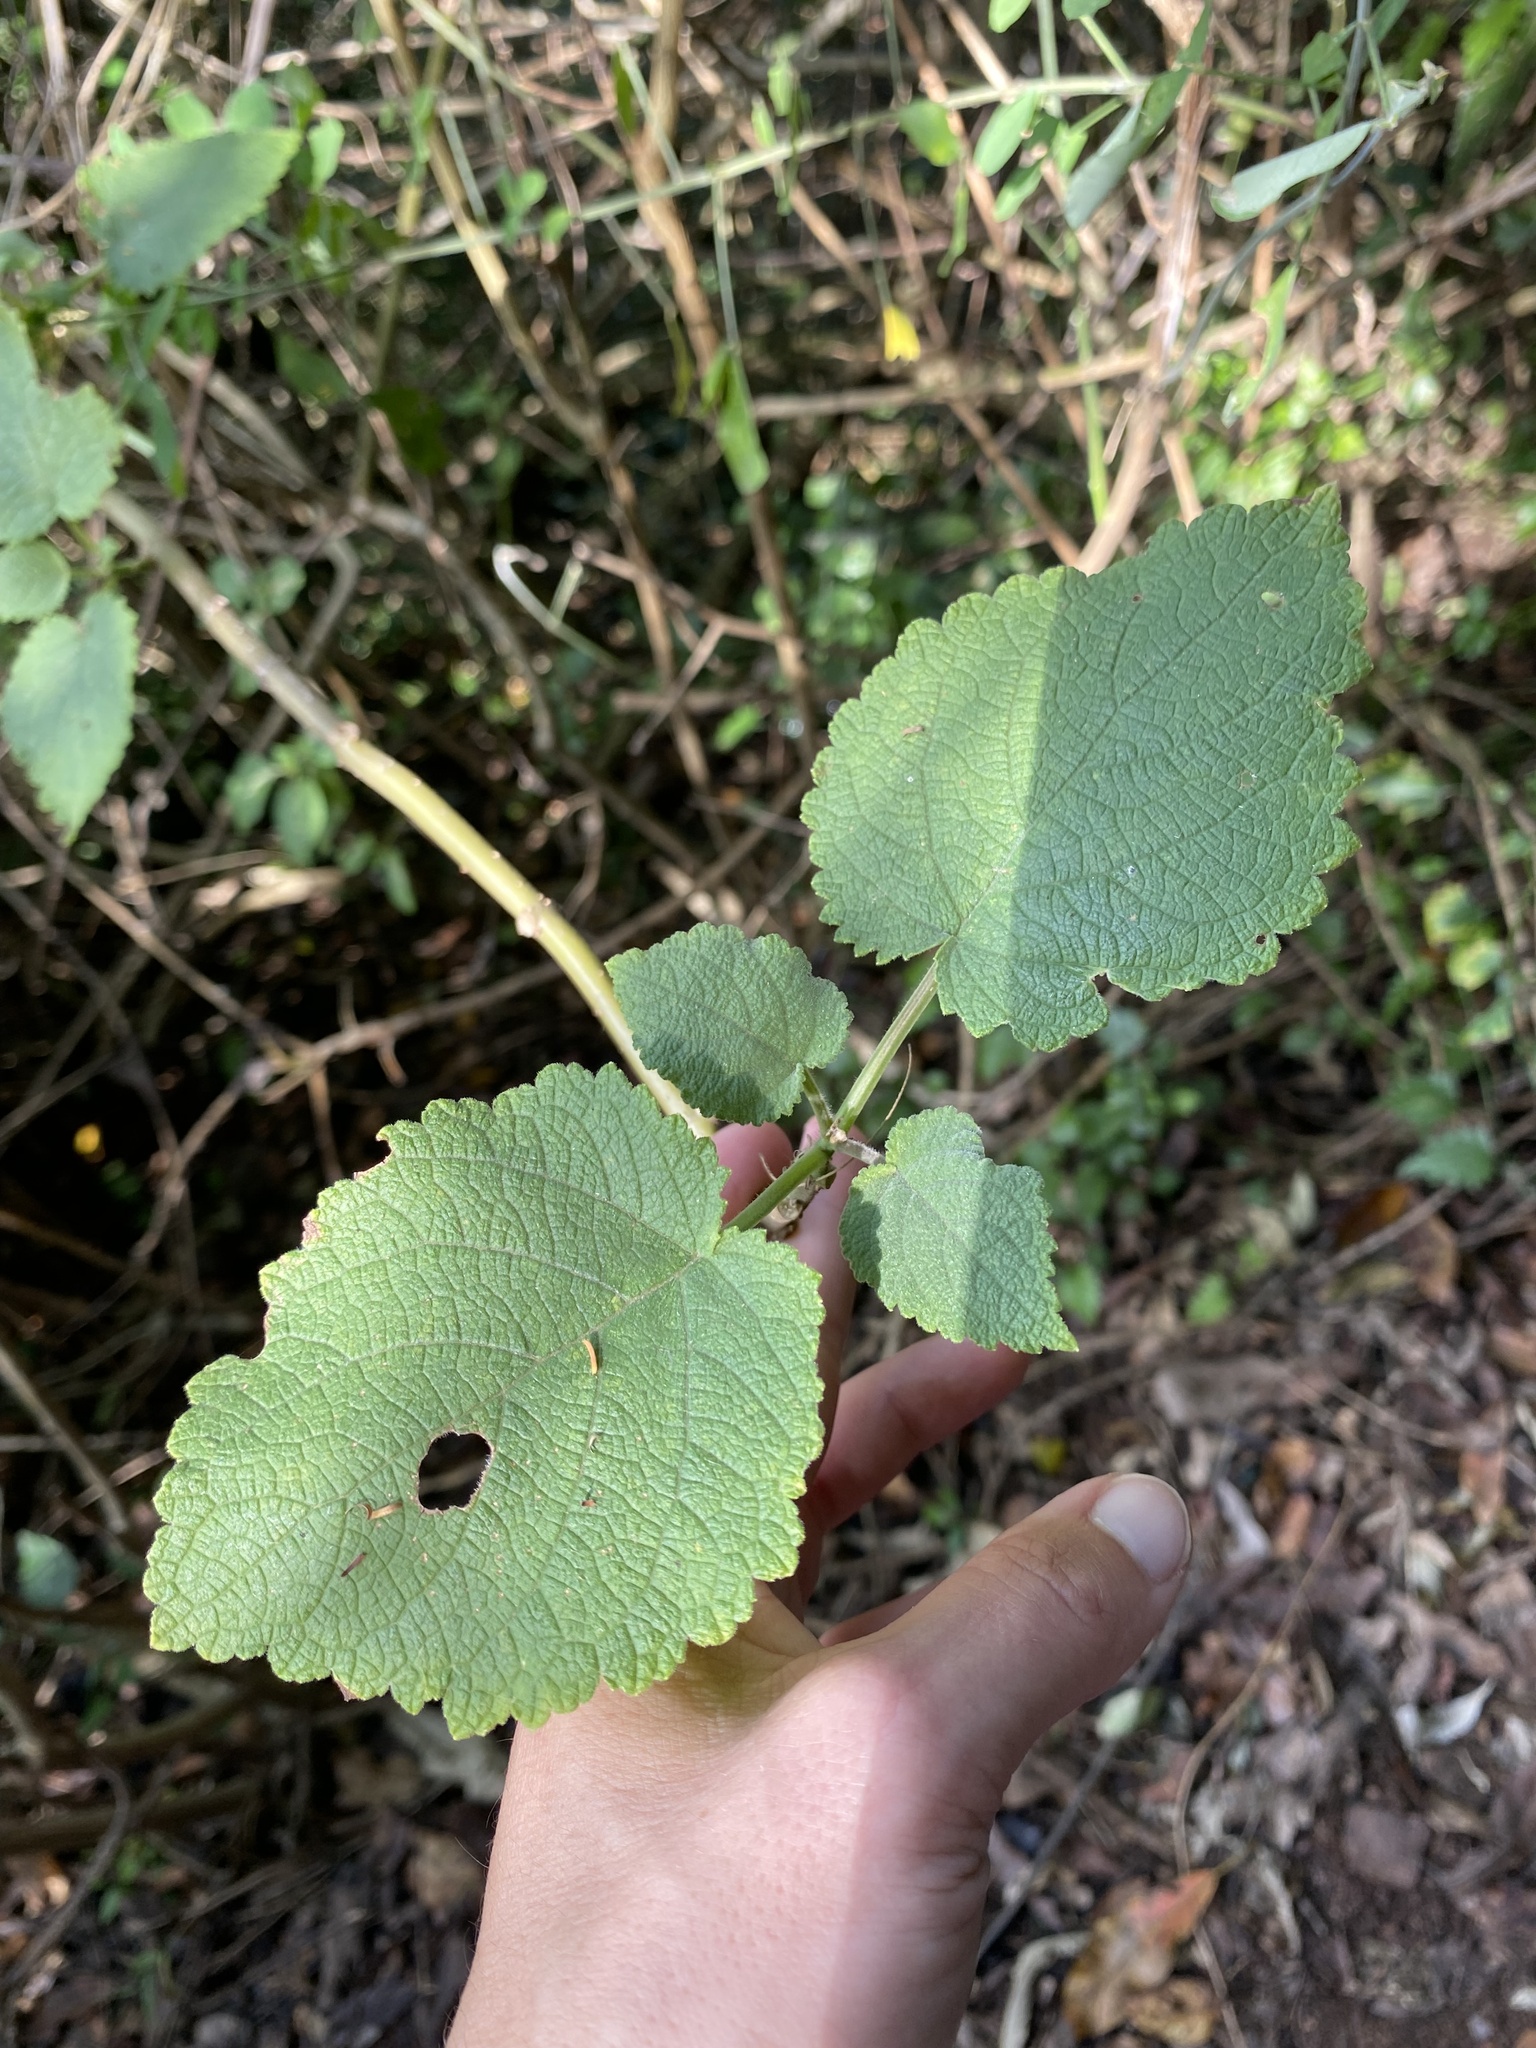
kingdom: Plantae
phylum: Tracheophyta
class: Magnoliopsida
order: Lamiales
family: Lamiaceae
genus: Tetradenia
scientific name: Tetradenia riparia
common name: Gingerbush
